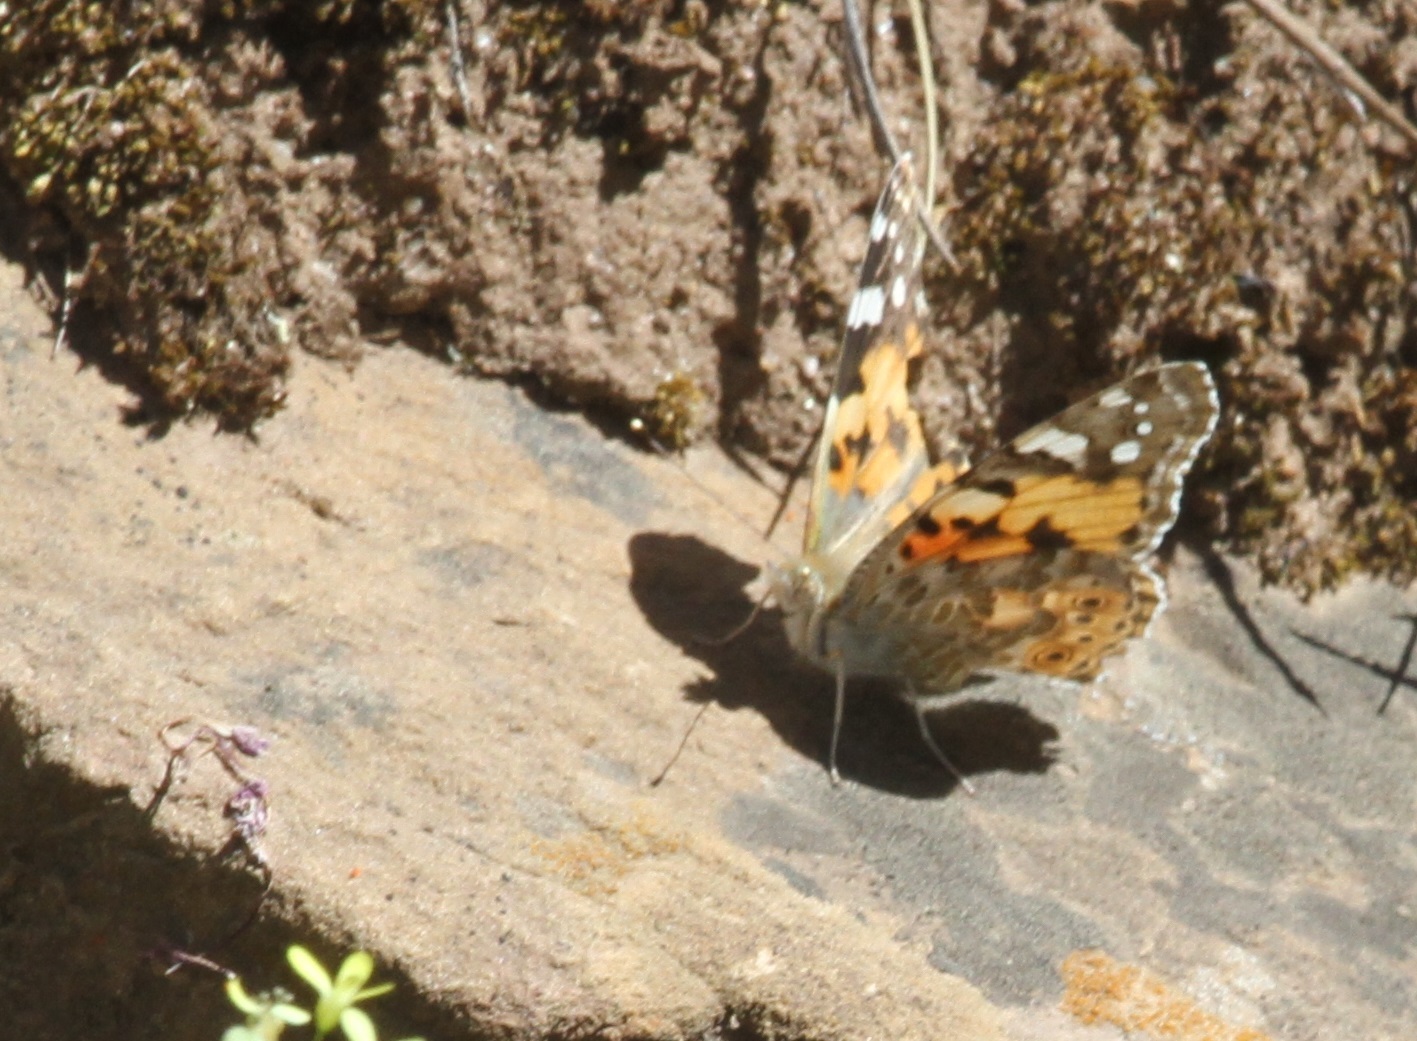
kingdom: Animalia
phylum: Arthropoda
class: Insecta
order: Lepidoptera
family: Nymphalidae
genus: Vanessa
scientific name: Vanessa cardui
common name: Painted lady
